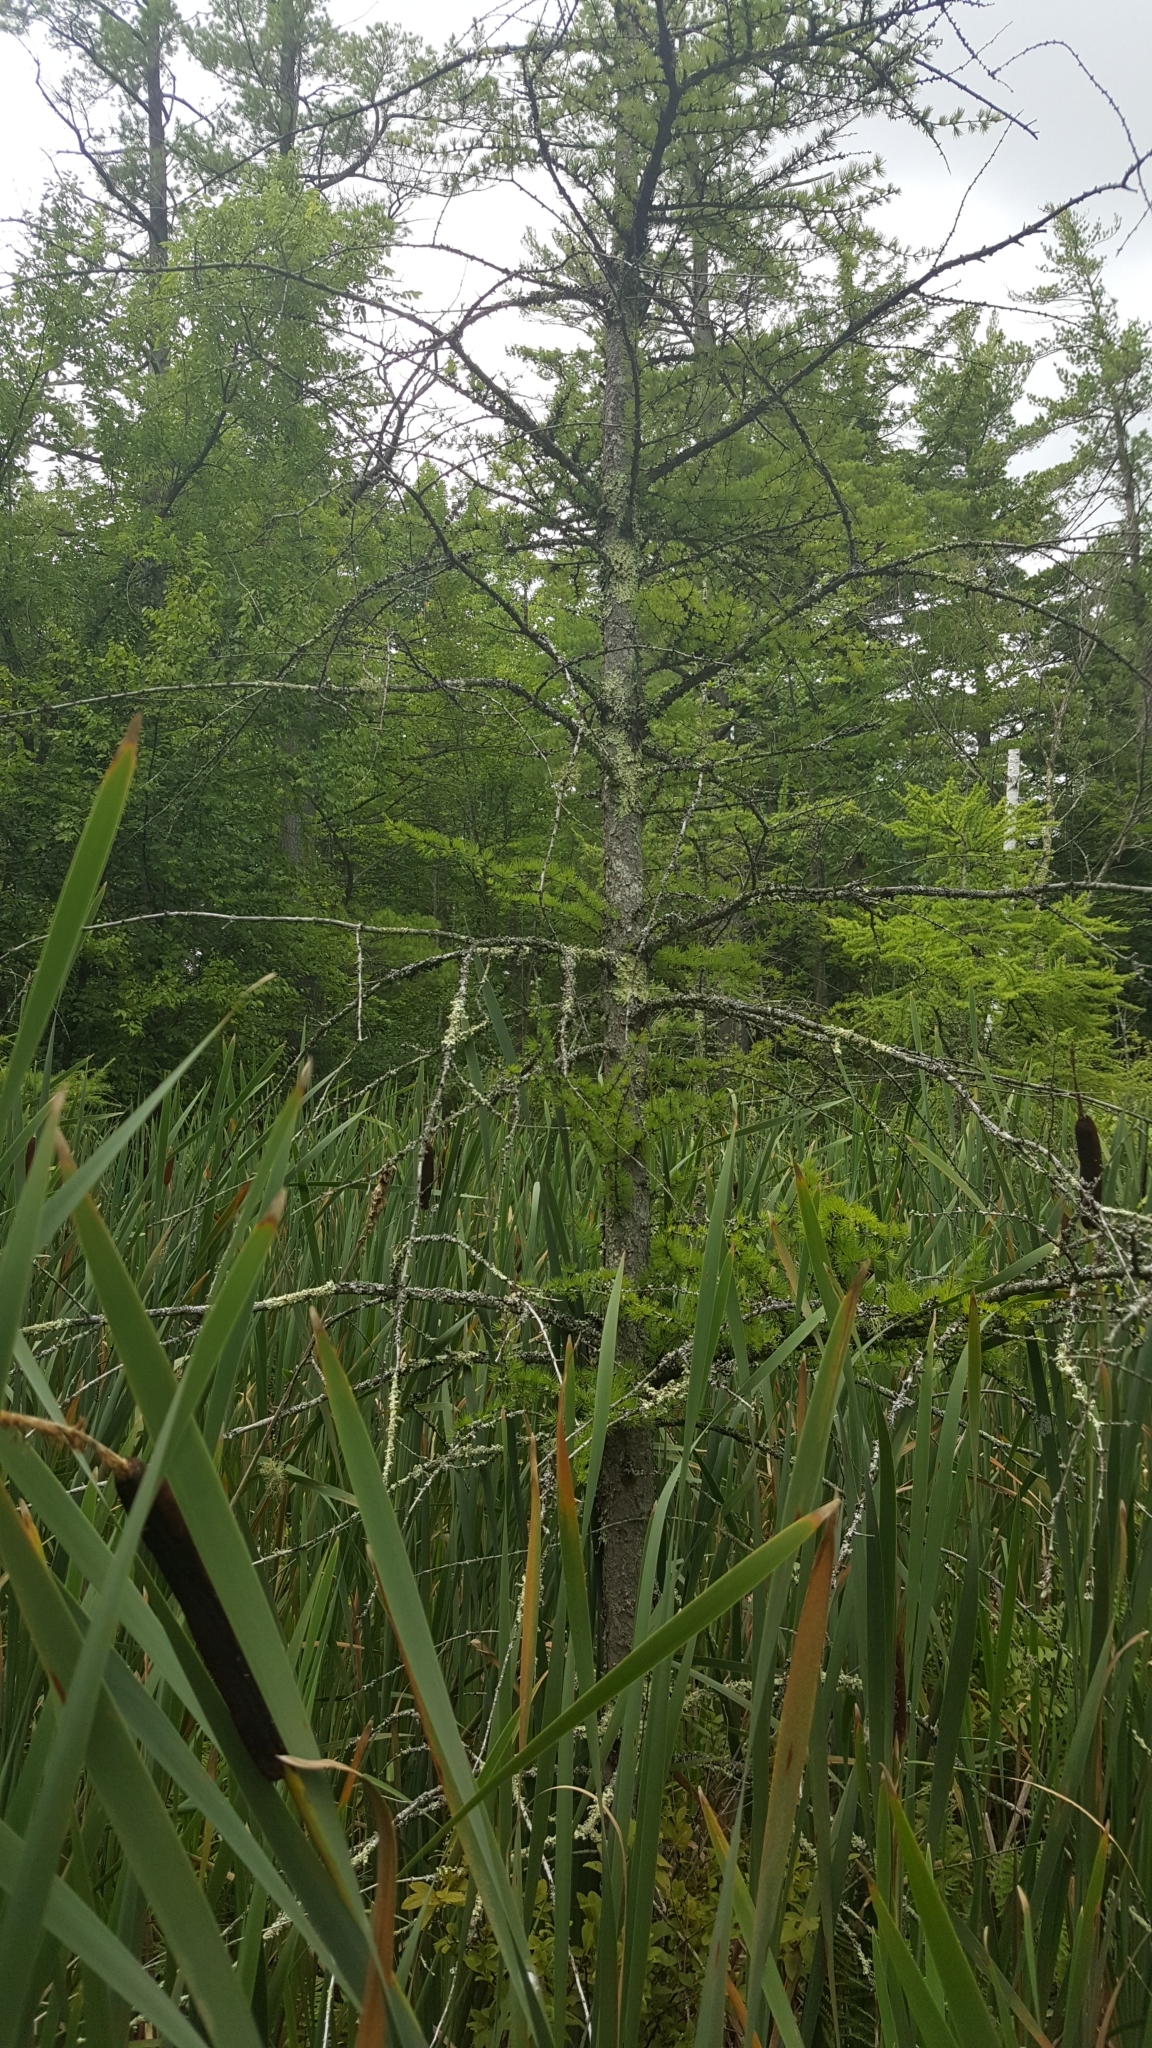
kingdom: Plantae
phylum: Tracheophyta
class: Pinopsida
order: Pinales
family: Pinaceae
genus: Larix
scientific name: Larix laricina
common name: American larch
